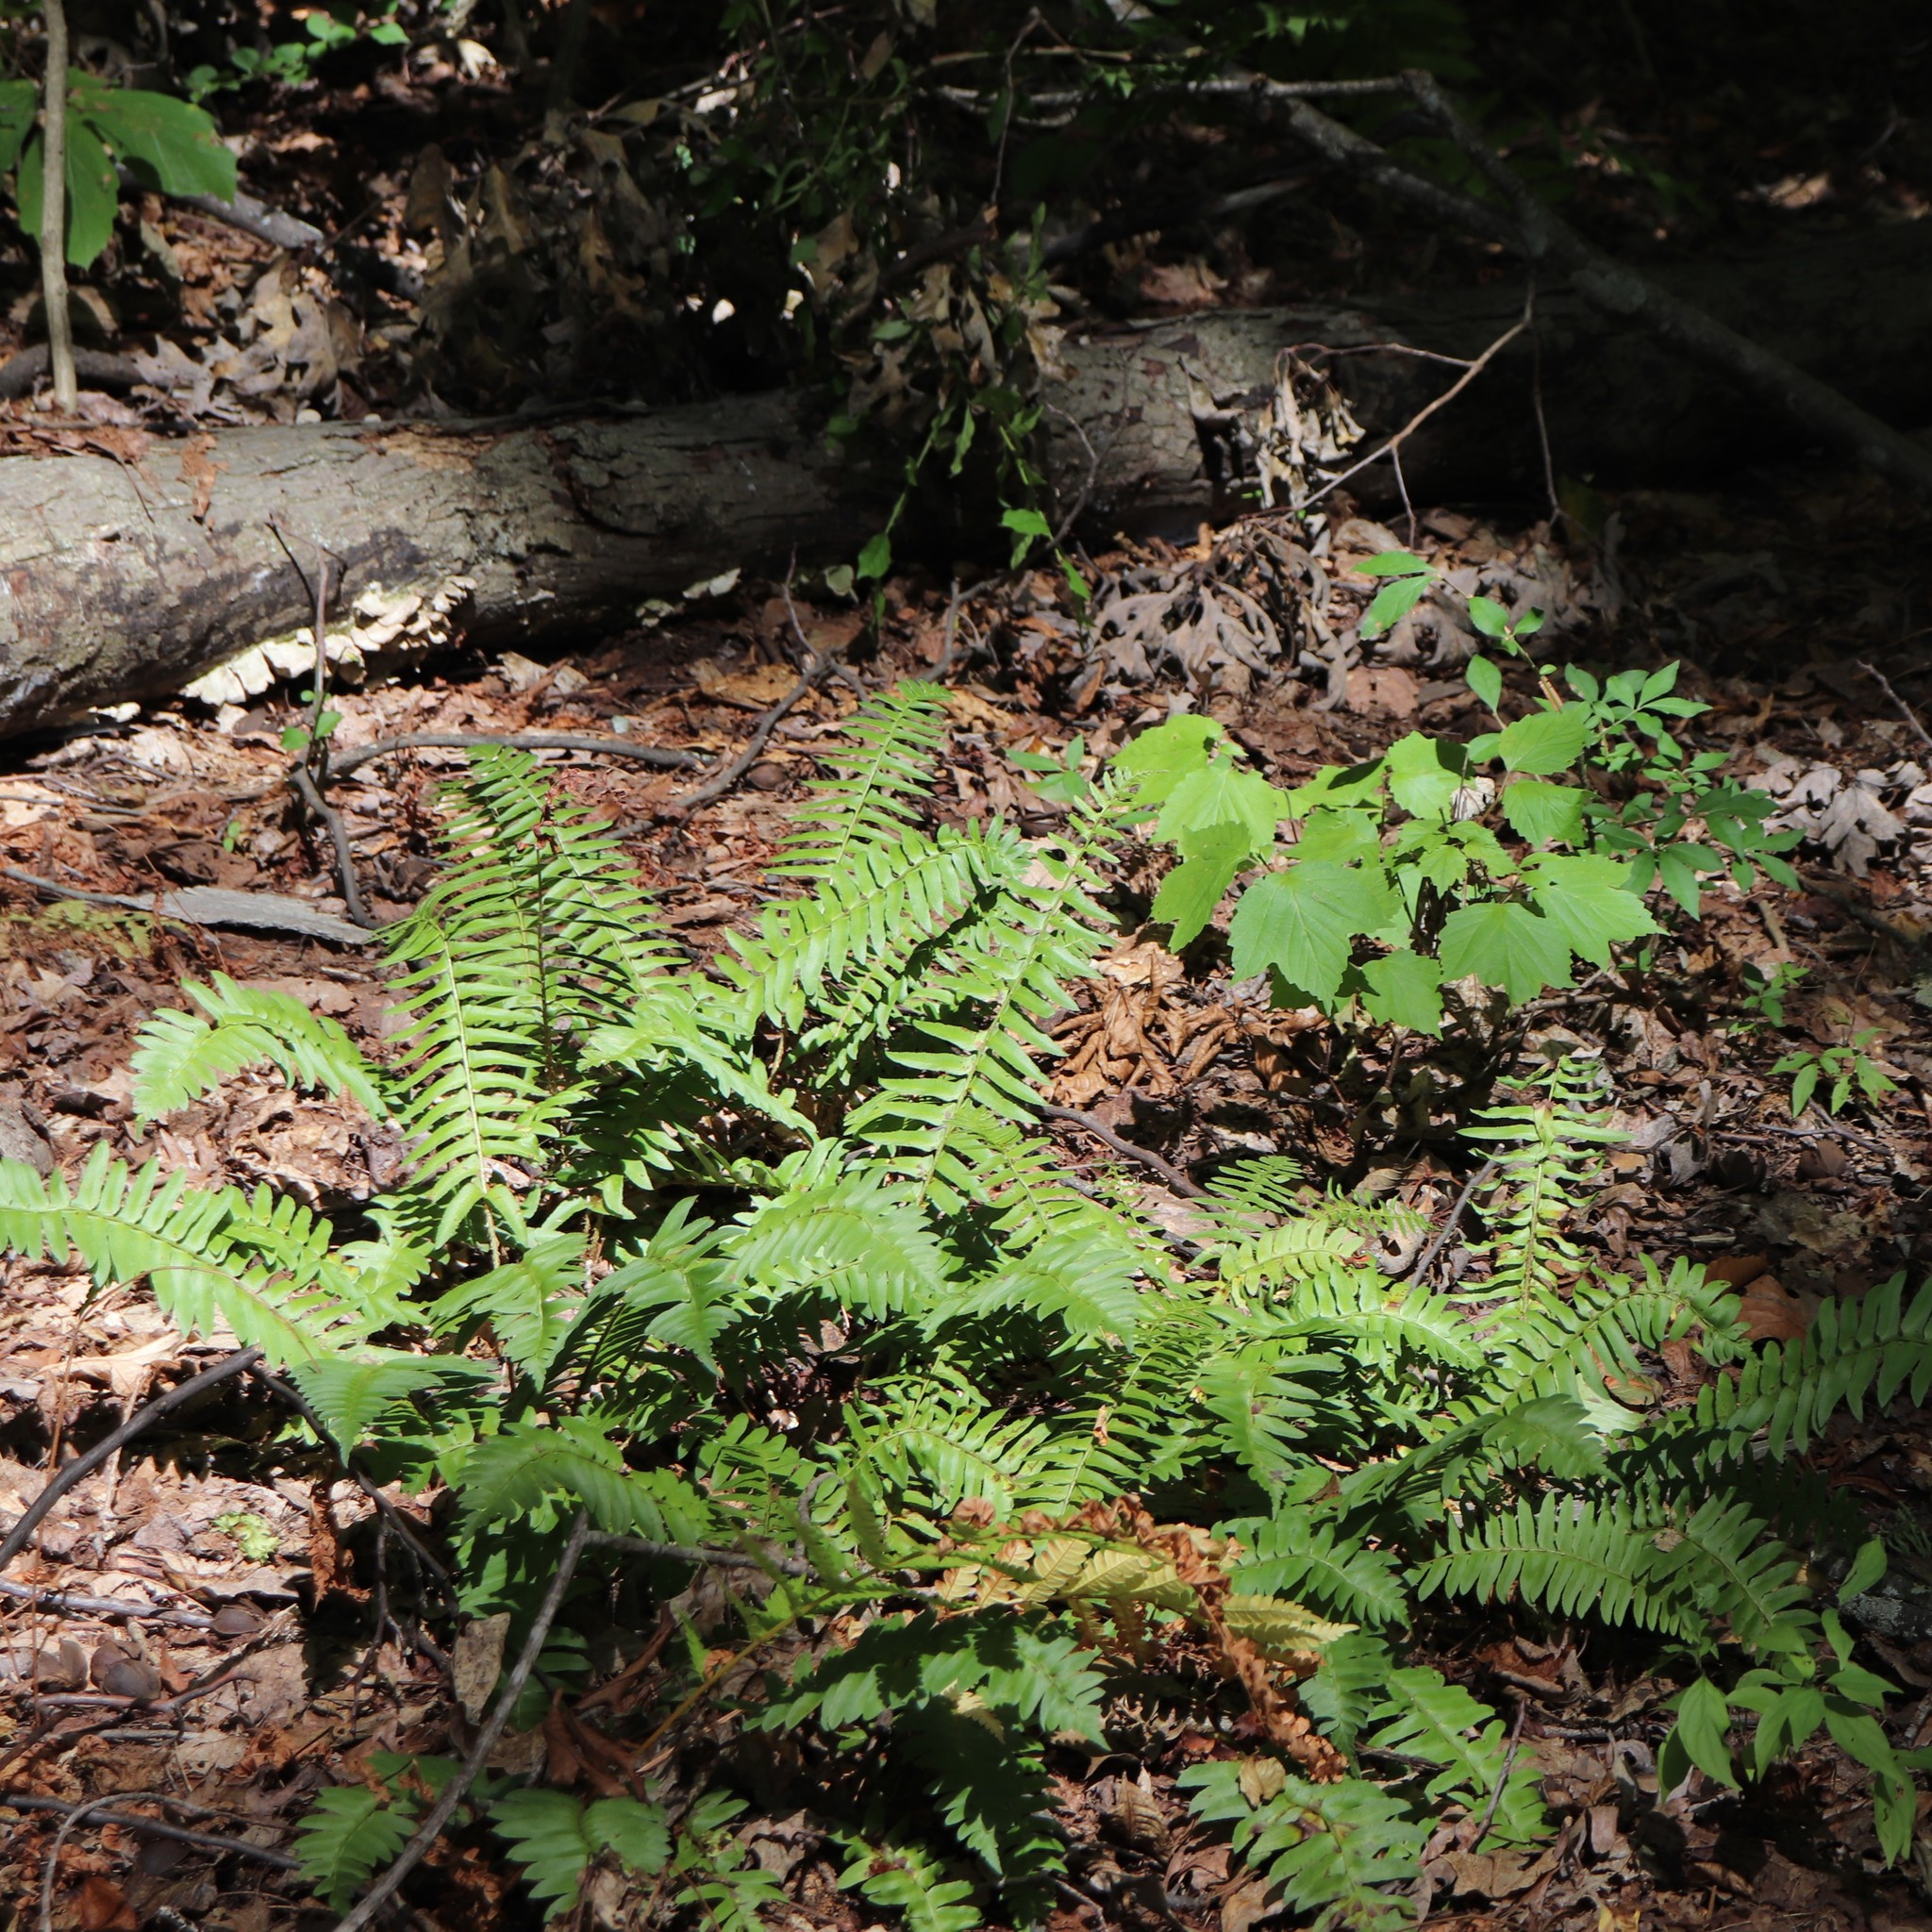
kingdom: Plantae
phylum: Tracheophyta
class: Polypodiopsida
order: Polypodiales
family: Dryopteridaceae
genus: Polystichum
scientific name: Polystichum acrostichoides
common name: Christmas fern
